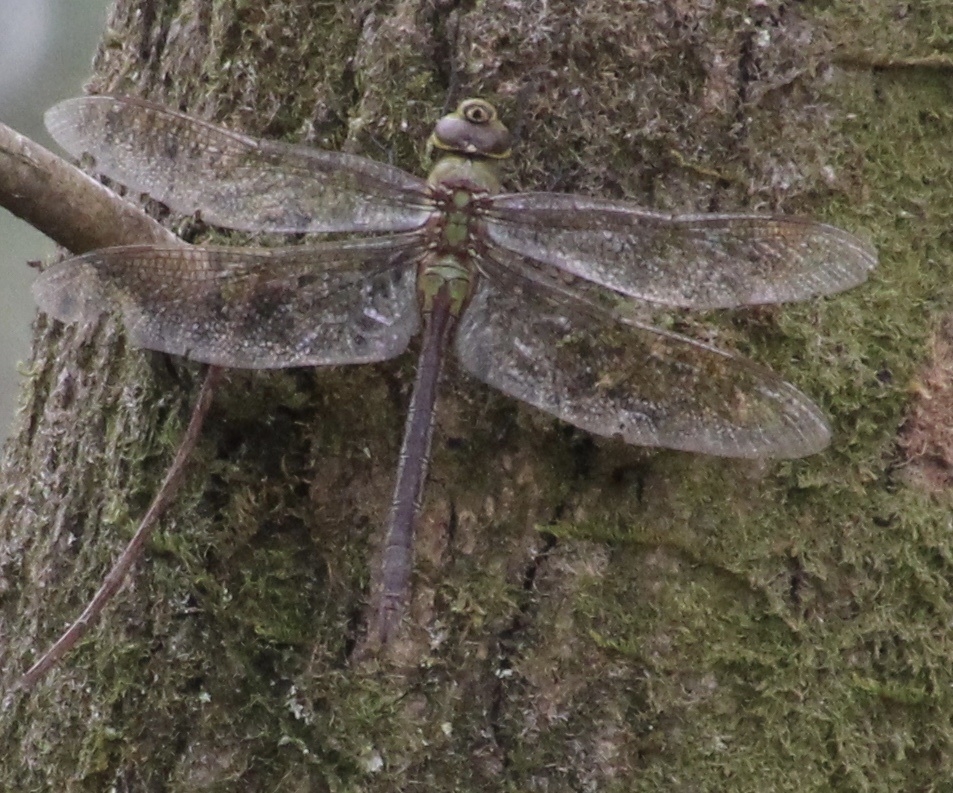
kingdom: Animalia
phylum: Arthropoda
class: Insecta
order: Odonata
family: Aeshnidae
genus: Anax
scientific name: Anax junius
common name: Common green darner
